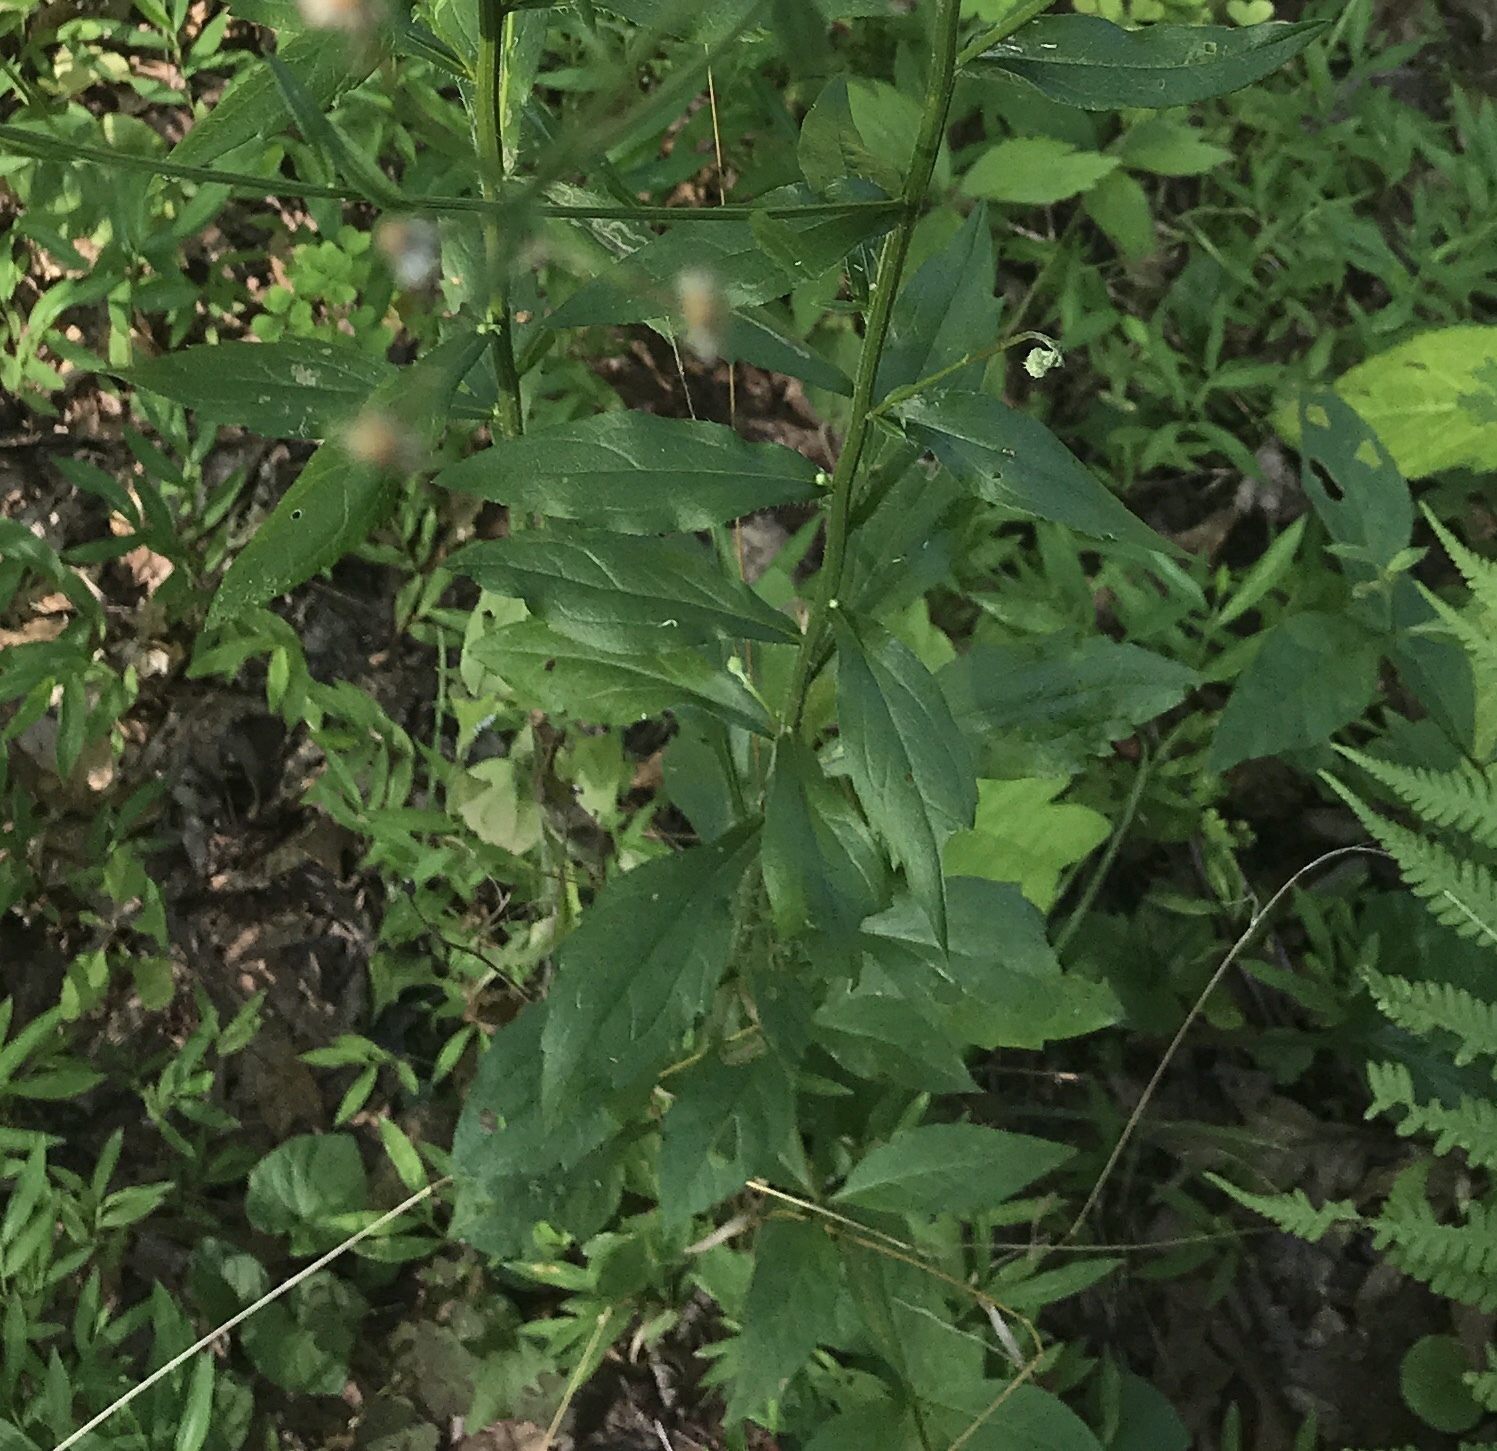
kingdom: Plantae
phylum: Tracheophyta
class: Magnoliopsida
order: Asterales
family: Asteraceae
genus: Erigeron
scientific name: Erigeron strigosus
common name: Common eastern fleabane
